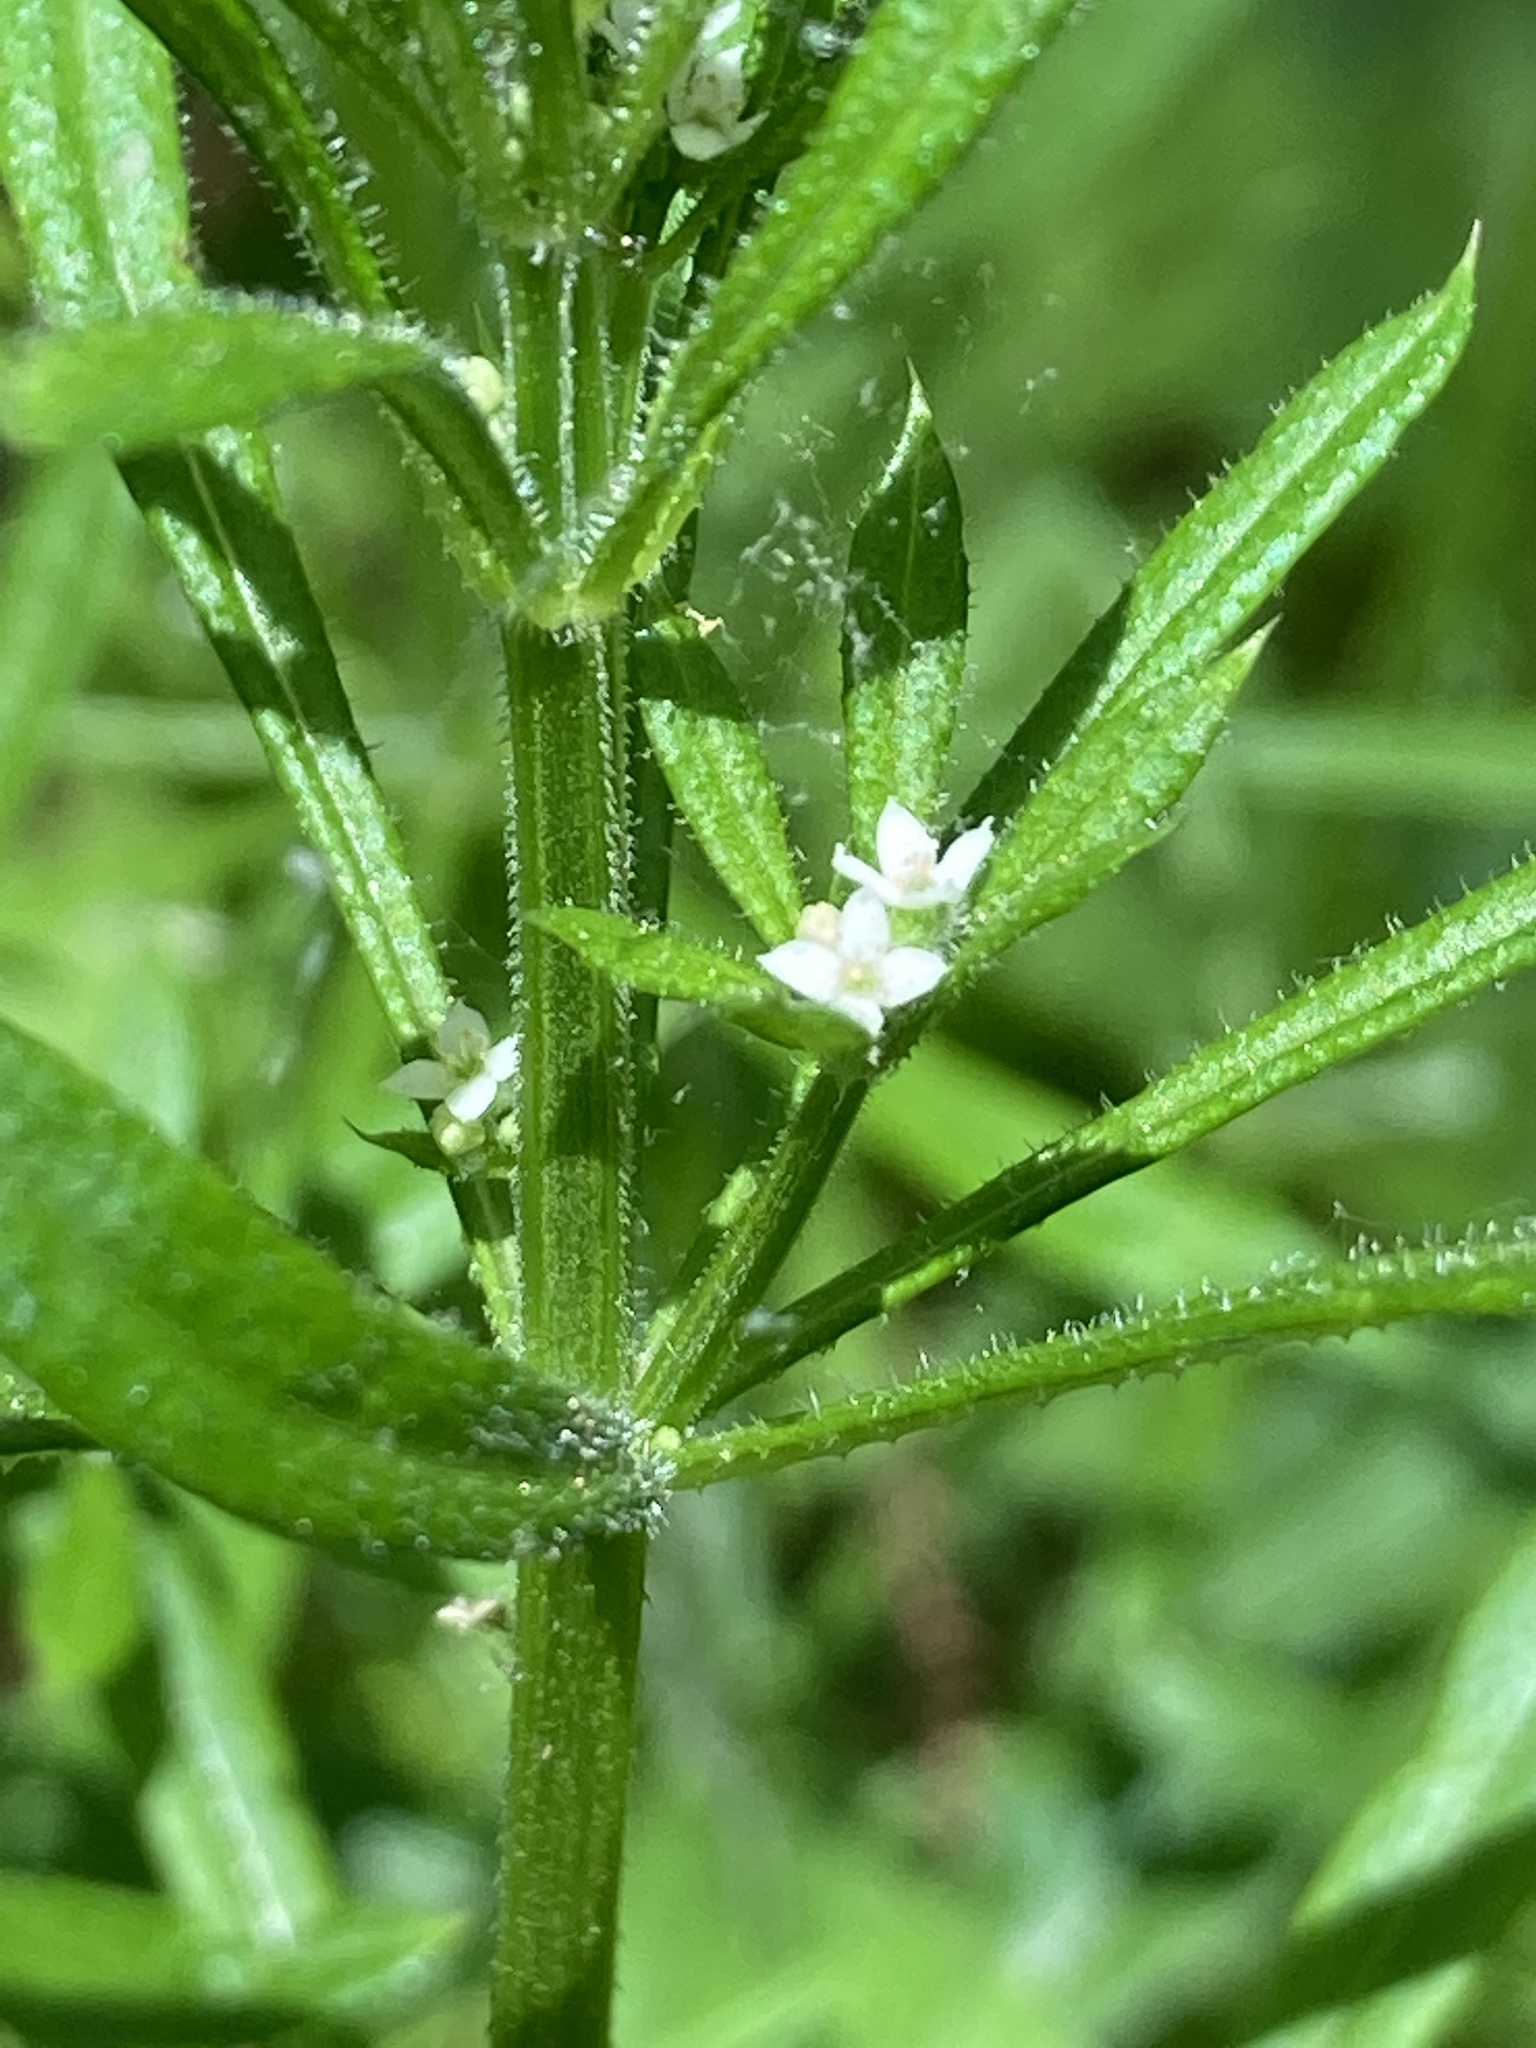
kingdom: Plantae
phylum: Tracheophyta
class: Magnoliopsida
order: Gentianales
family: Rubiaceae
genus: Galium
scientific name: Galium aparine
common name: Cleavers
